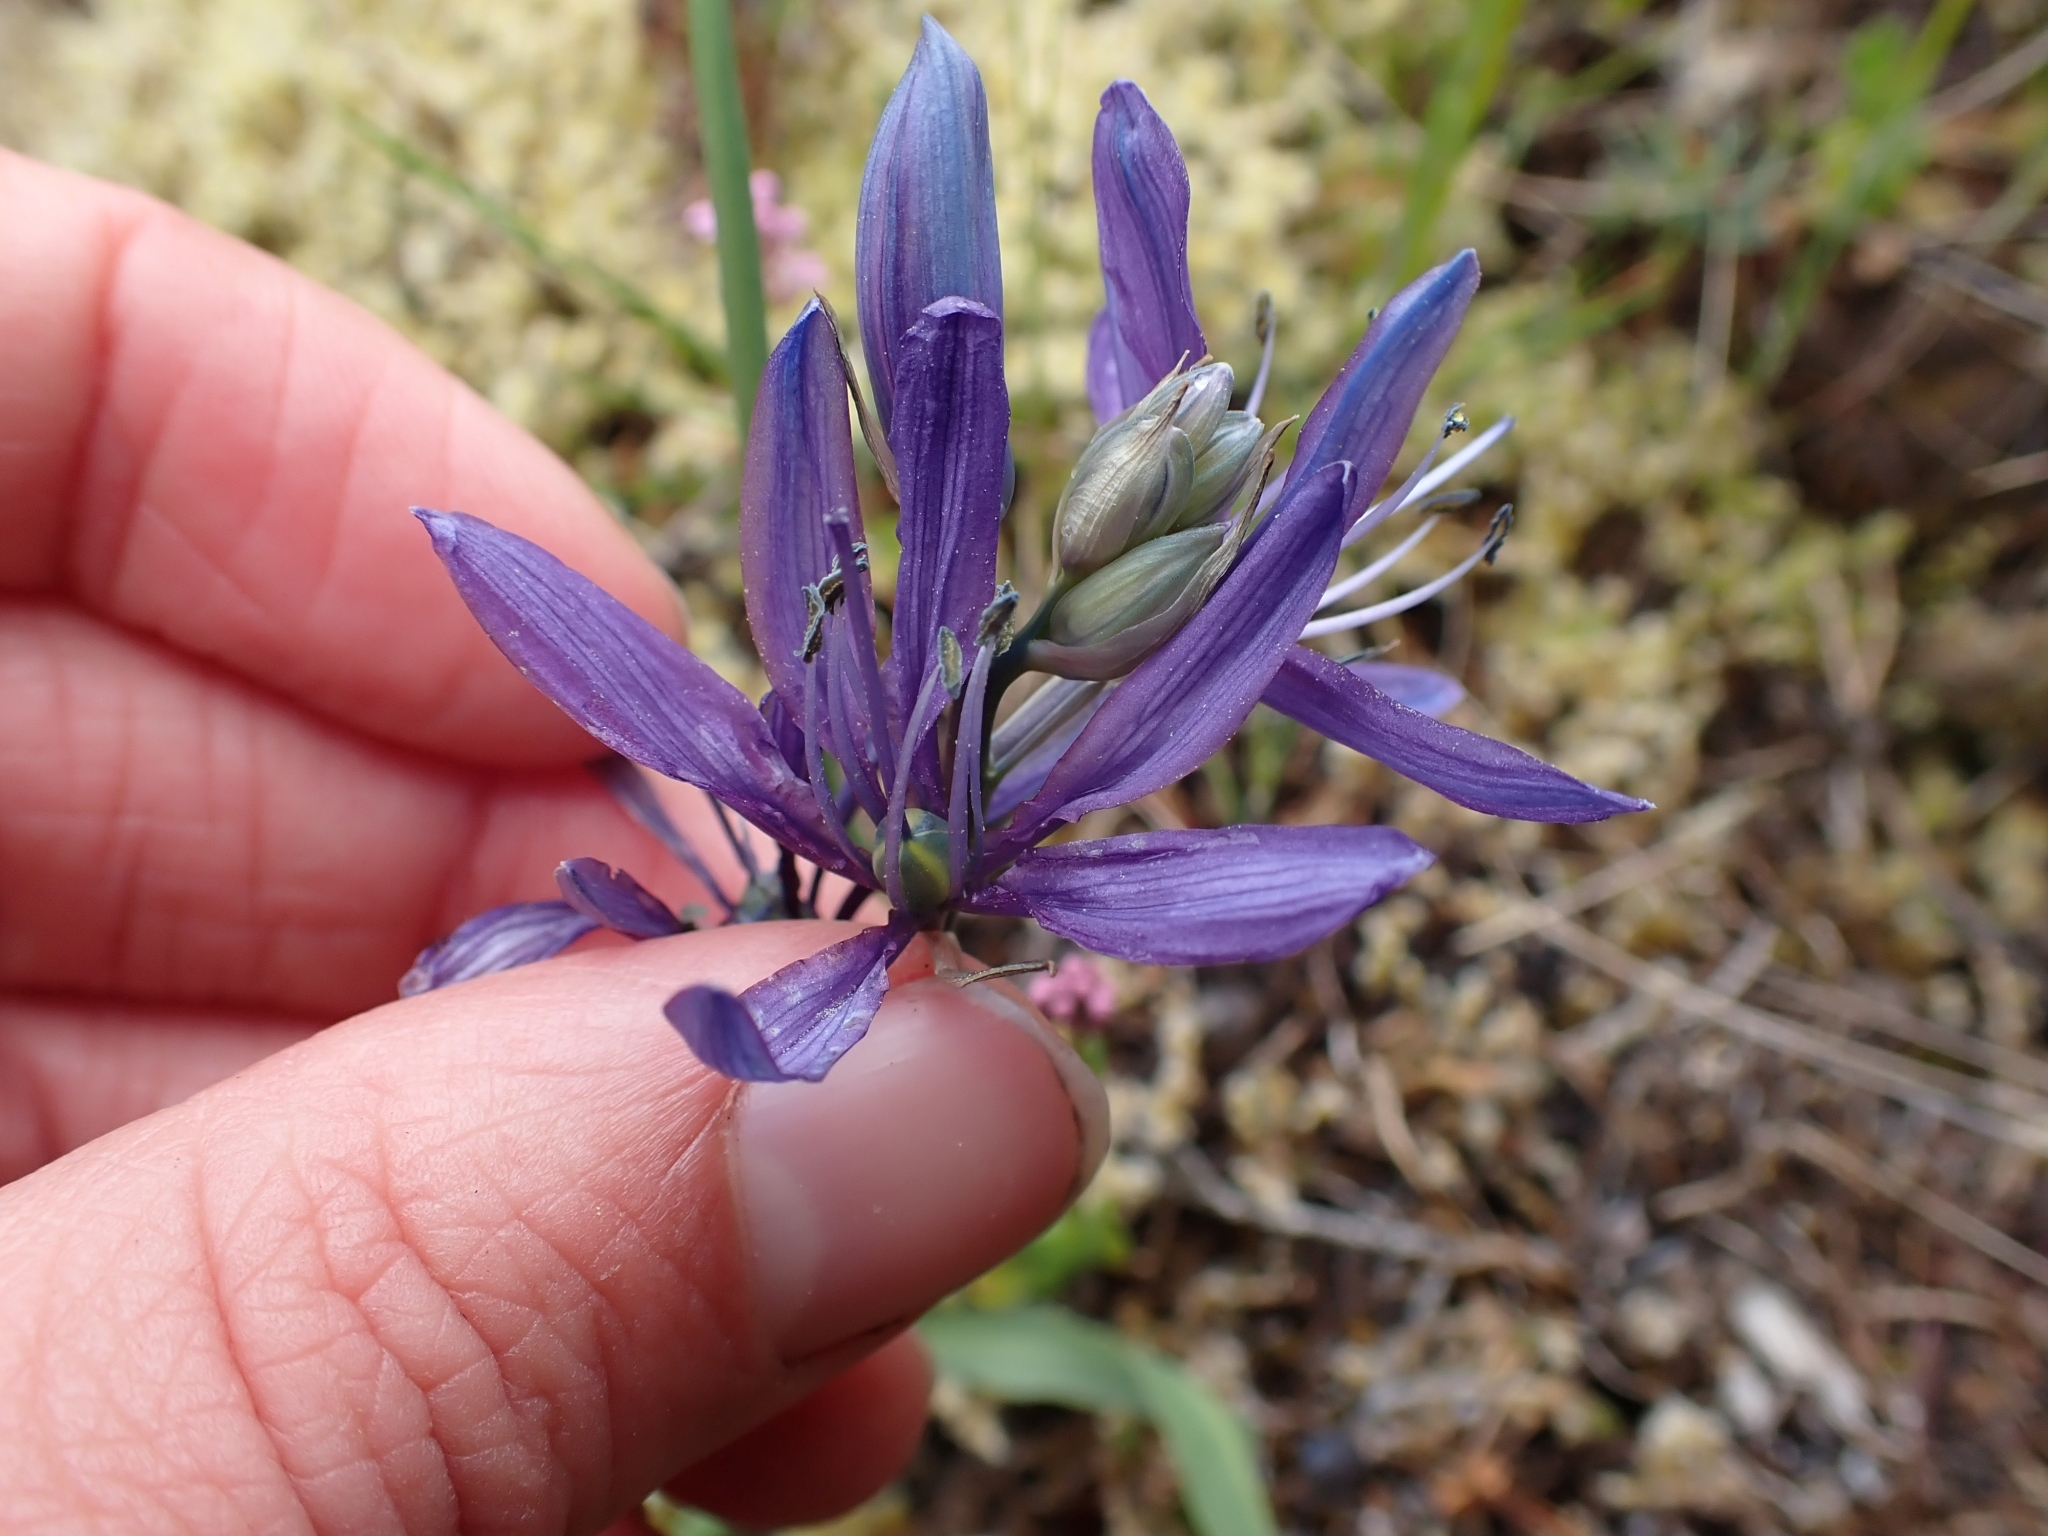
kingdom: Plantae
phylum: Tracheophyta
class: Liliopsida
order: Asparagales
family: Asparagaceae
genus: Camassia
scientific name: Camassia quamash
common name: Common camas
